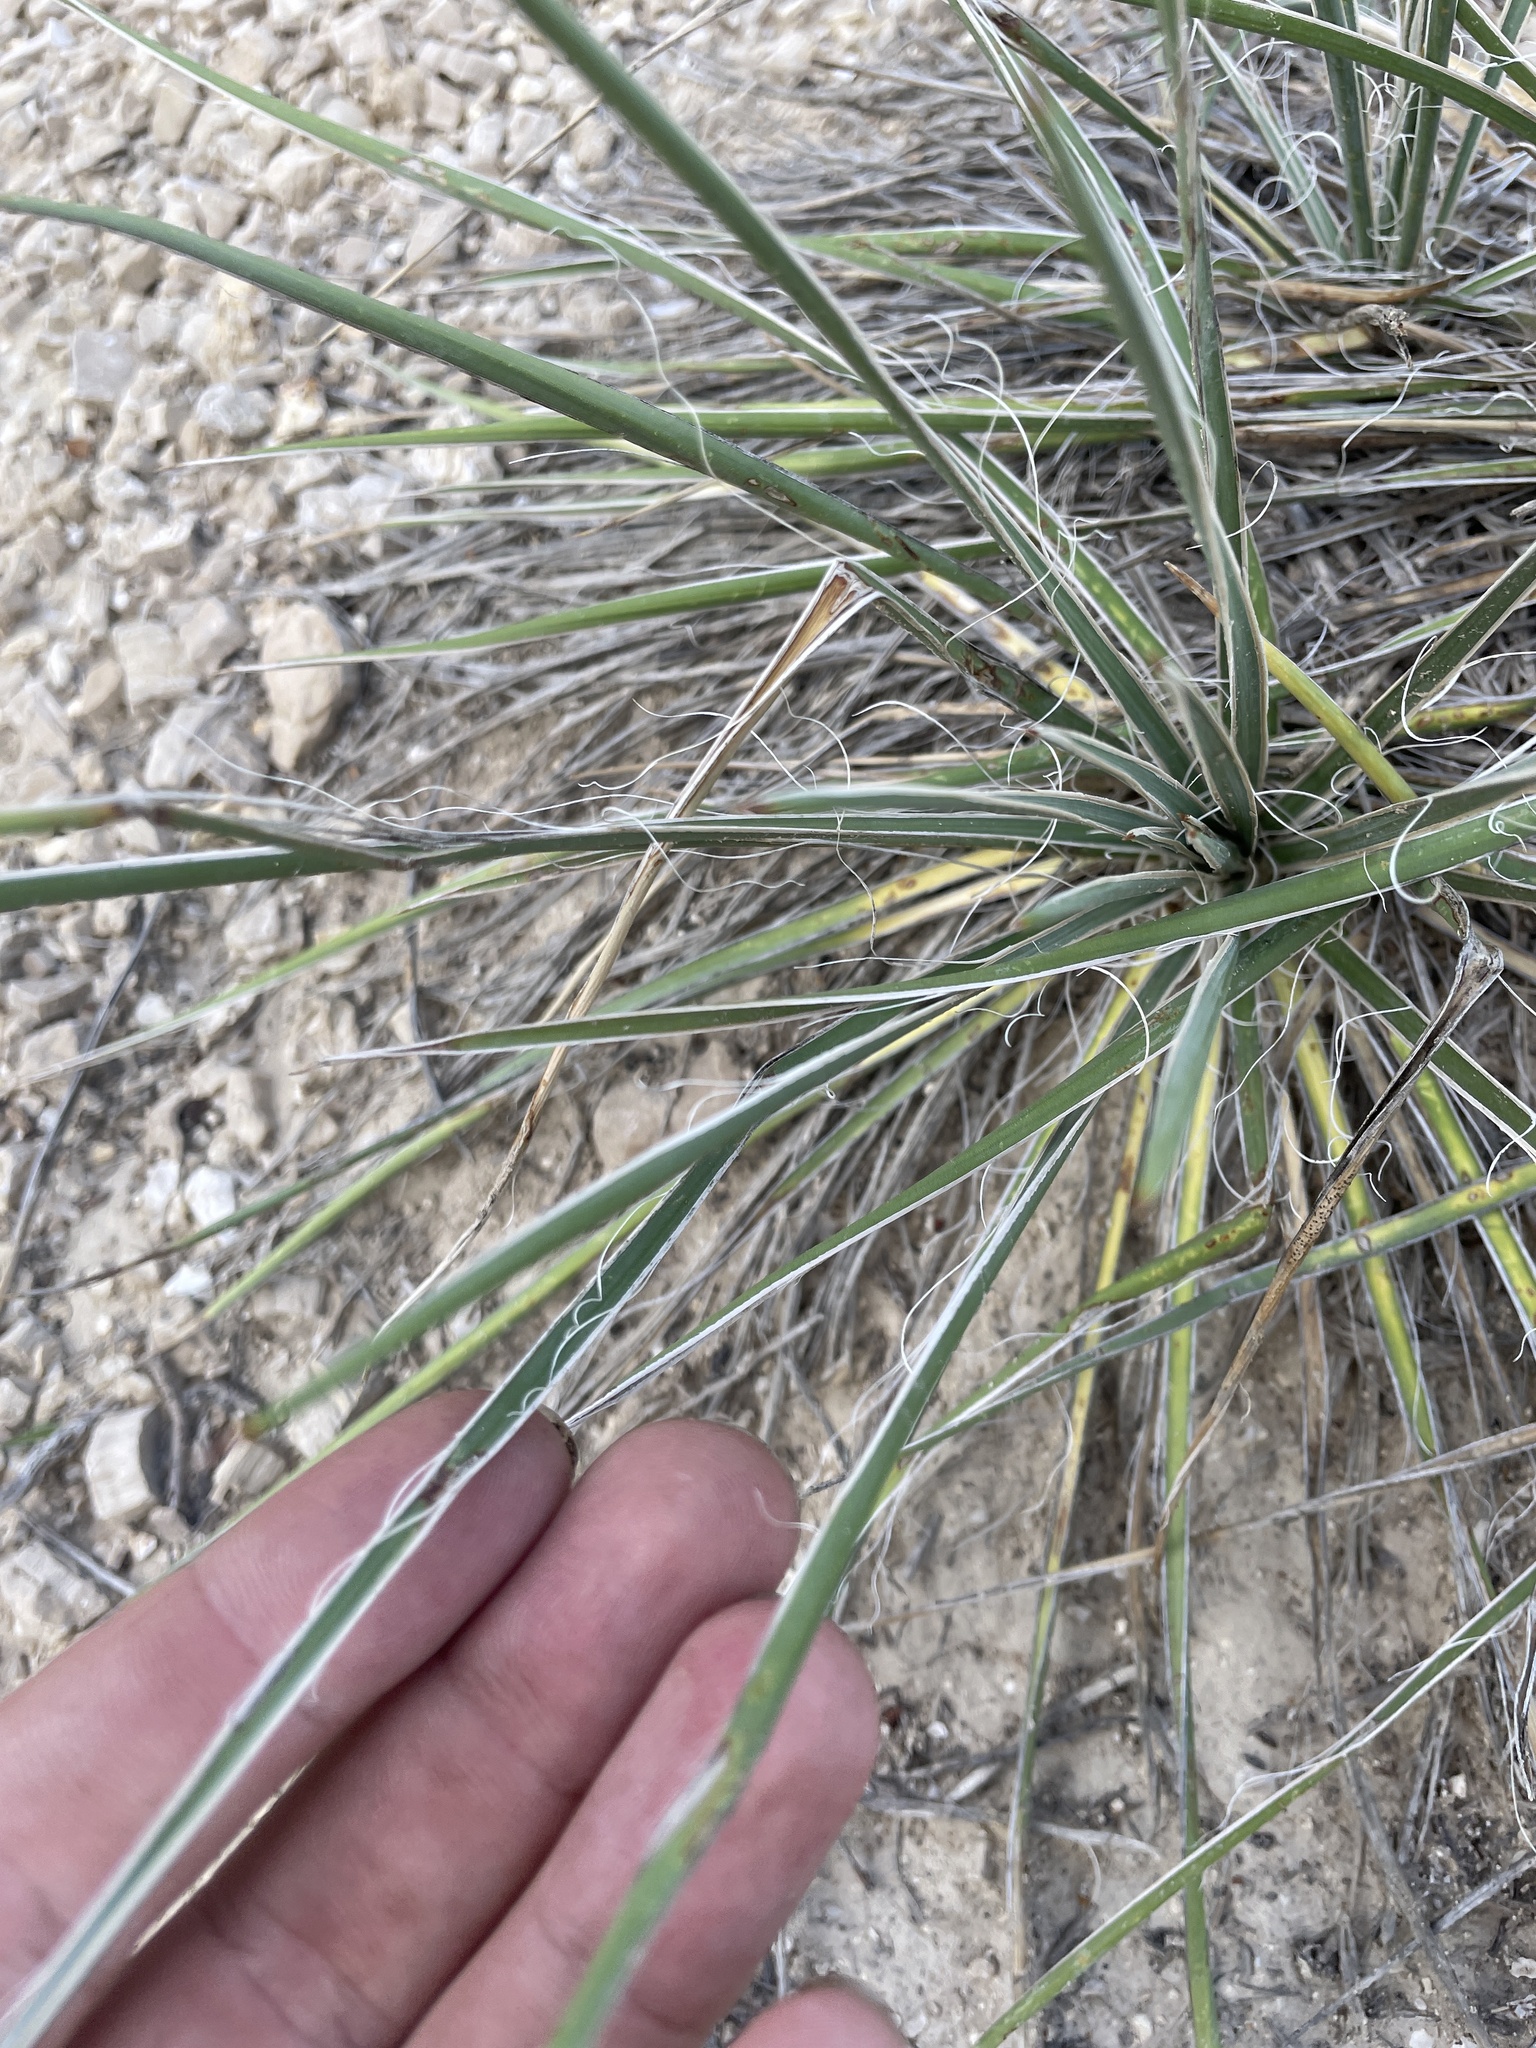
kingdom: Plantae
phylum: Tracheophyta
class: Liliopsida
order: Asparagales
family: Asparagaceae
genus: Yucca
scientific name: Yucca glauca
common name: Great plains yucca
